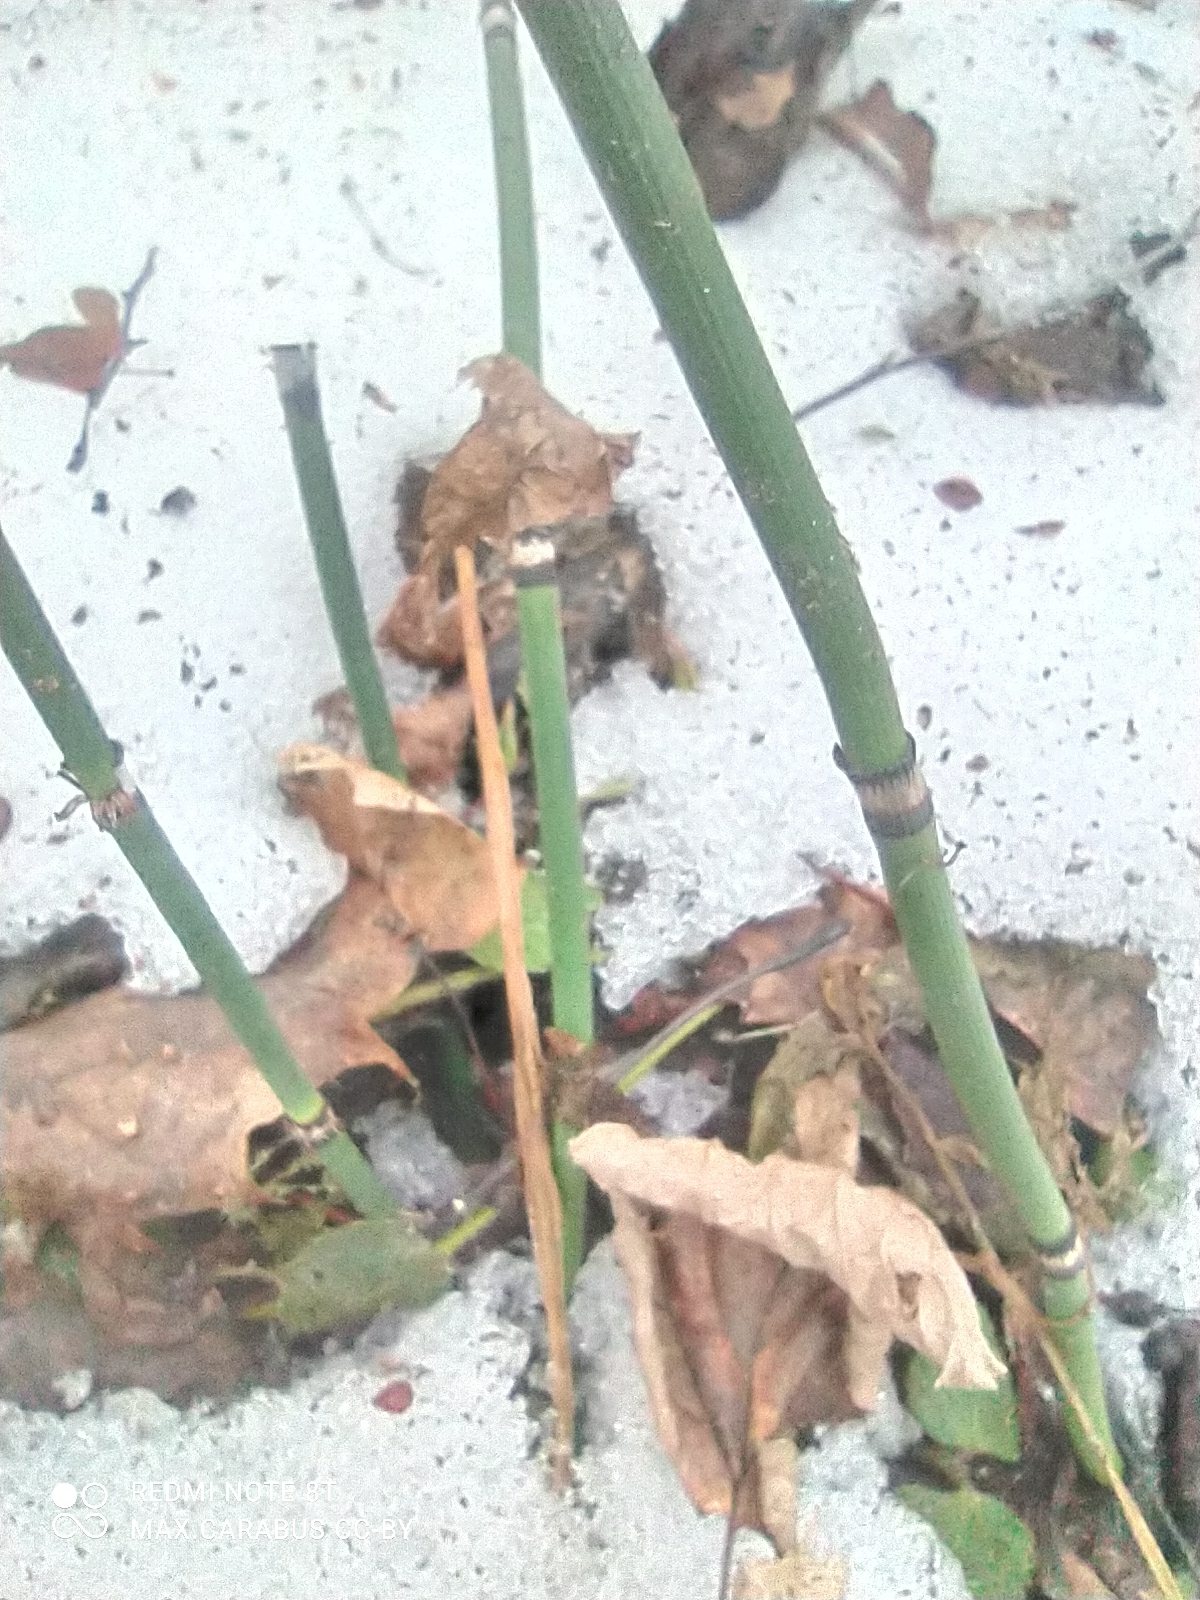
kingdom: Plantae
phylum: Tracheophyta
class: Polypodiopsida
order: Equisetales
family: Equisetaceae
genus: Equisetum
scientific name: Equisetum hyemale
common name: Rough horsetail
